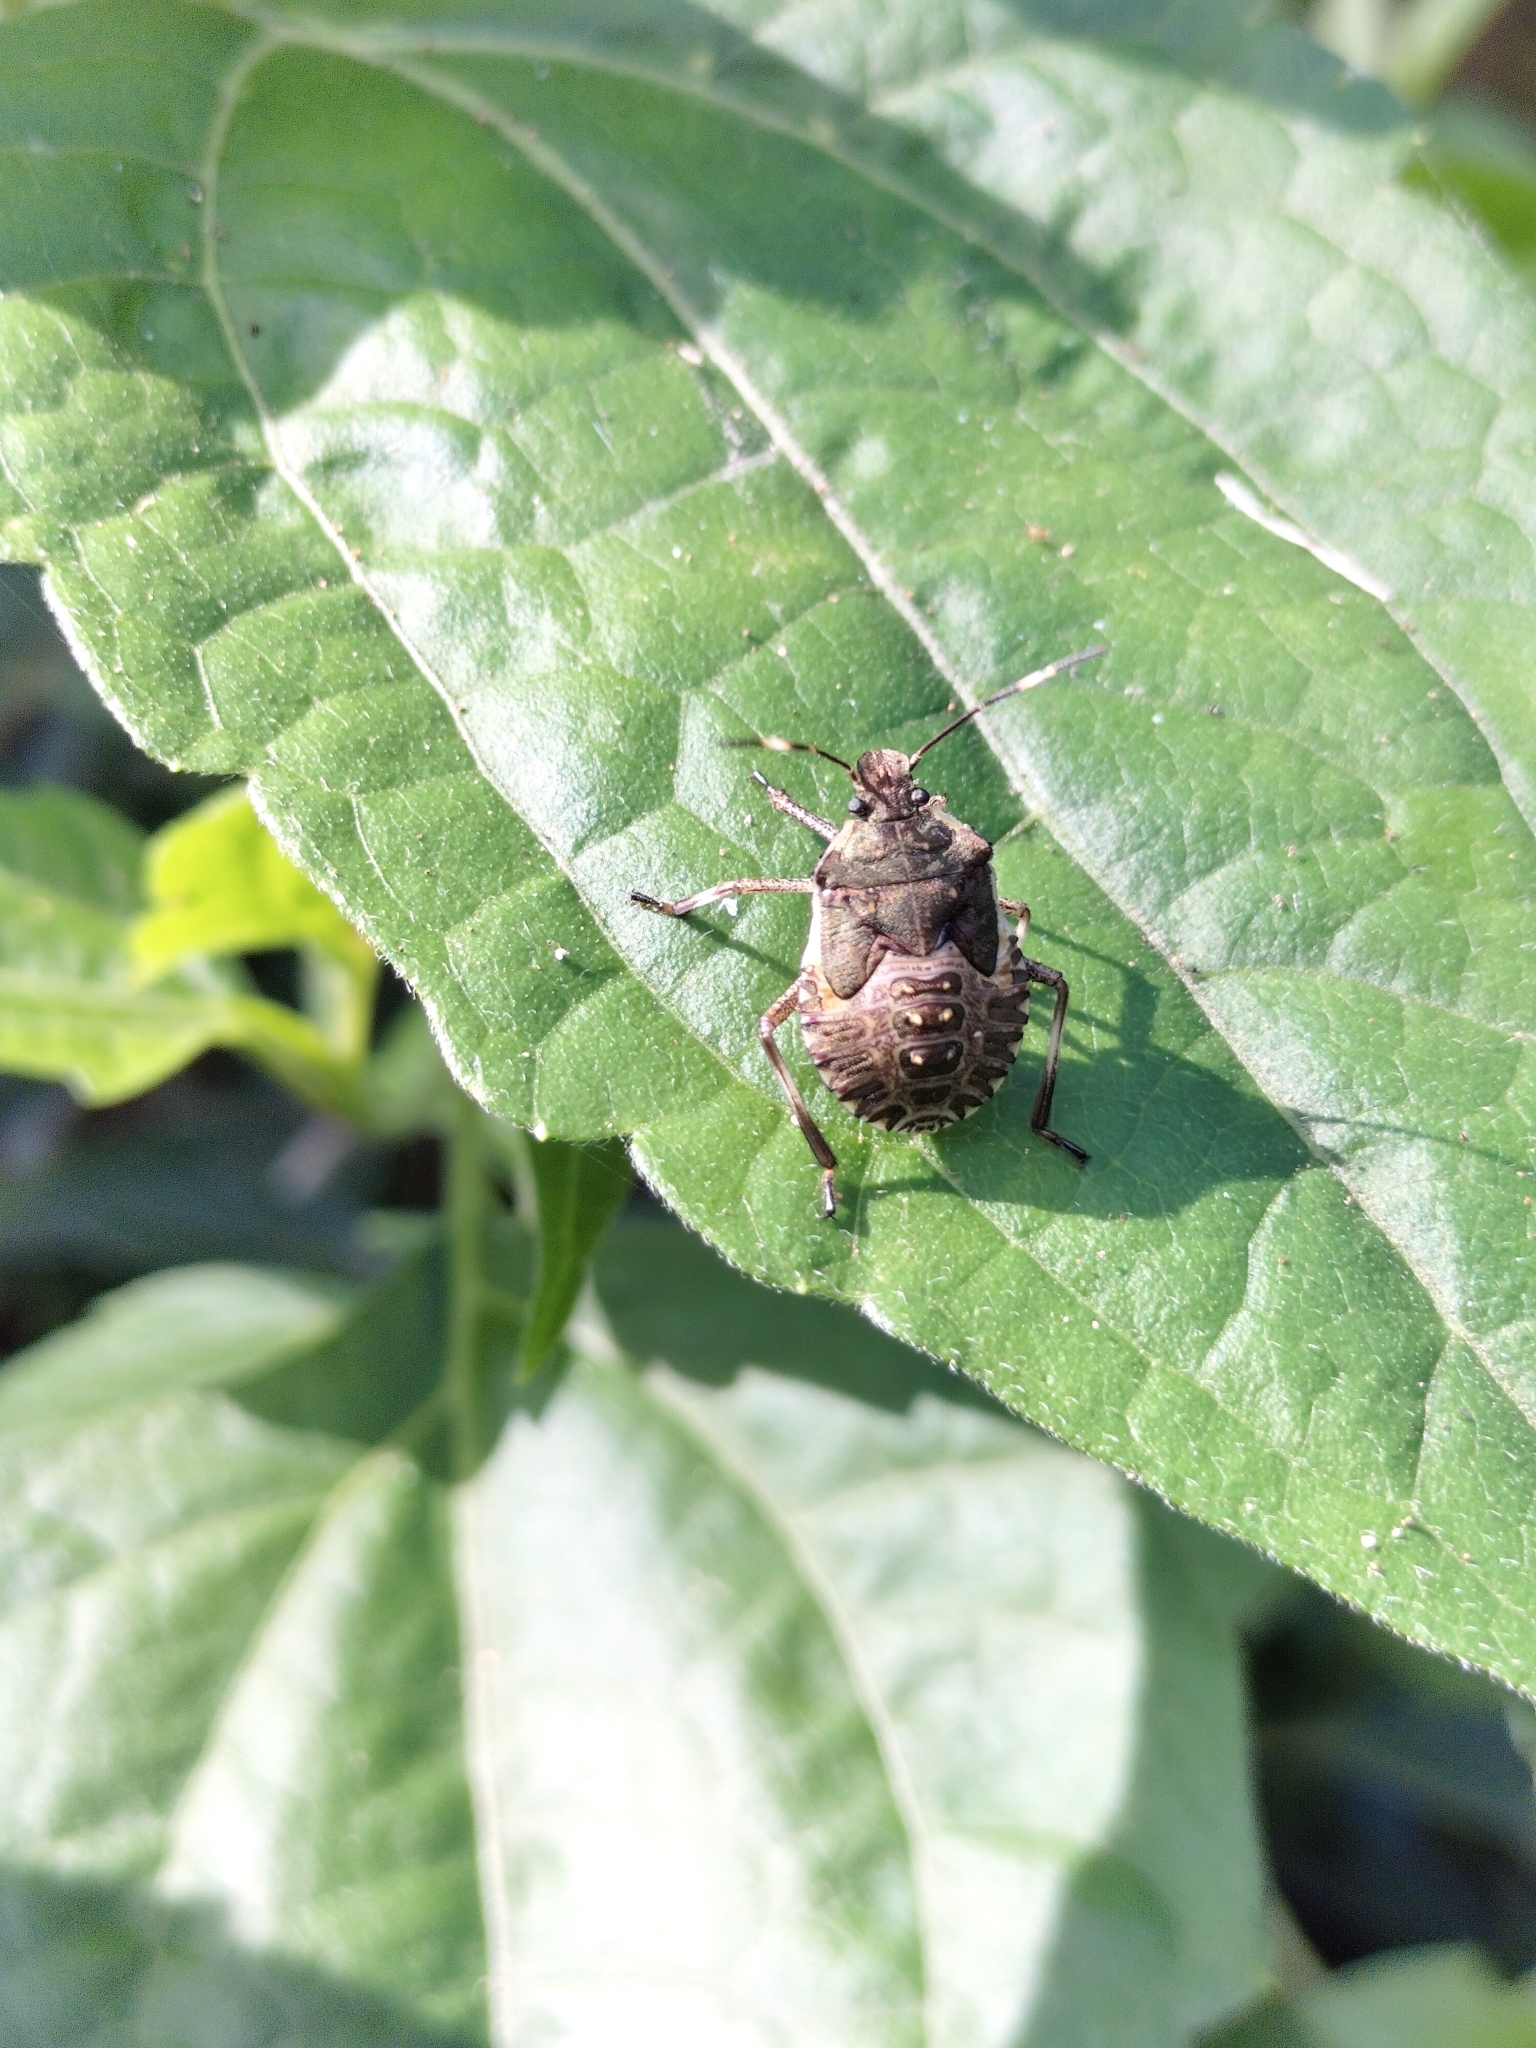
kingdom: Animalia
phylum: Arthropoda
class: Insecta
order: Hemiptera
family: Pentatomidae
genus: Halyomorpha
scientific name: Halyomorpha halys
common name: Brown marmorated stink bug
